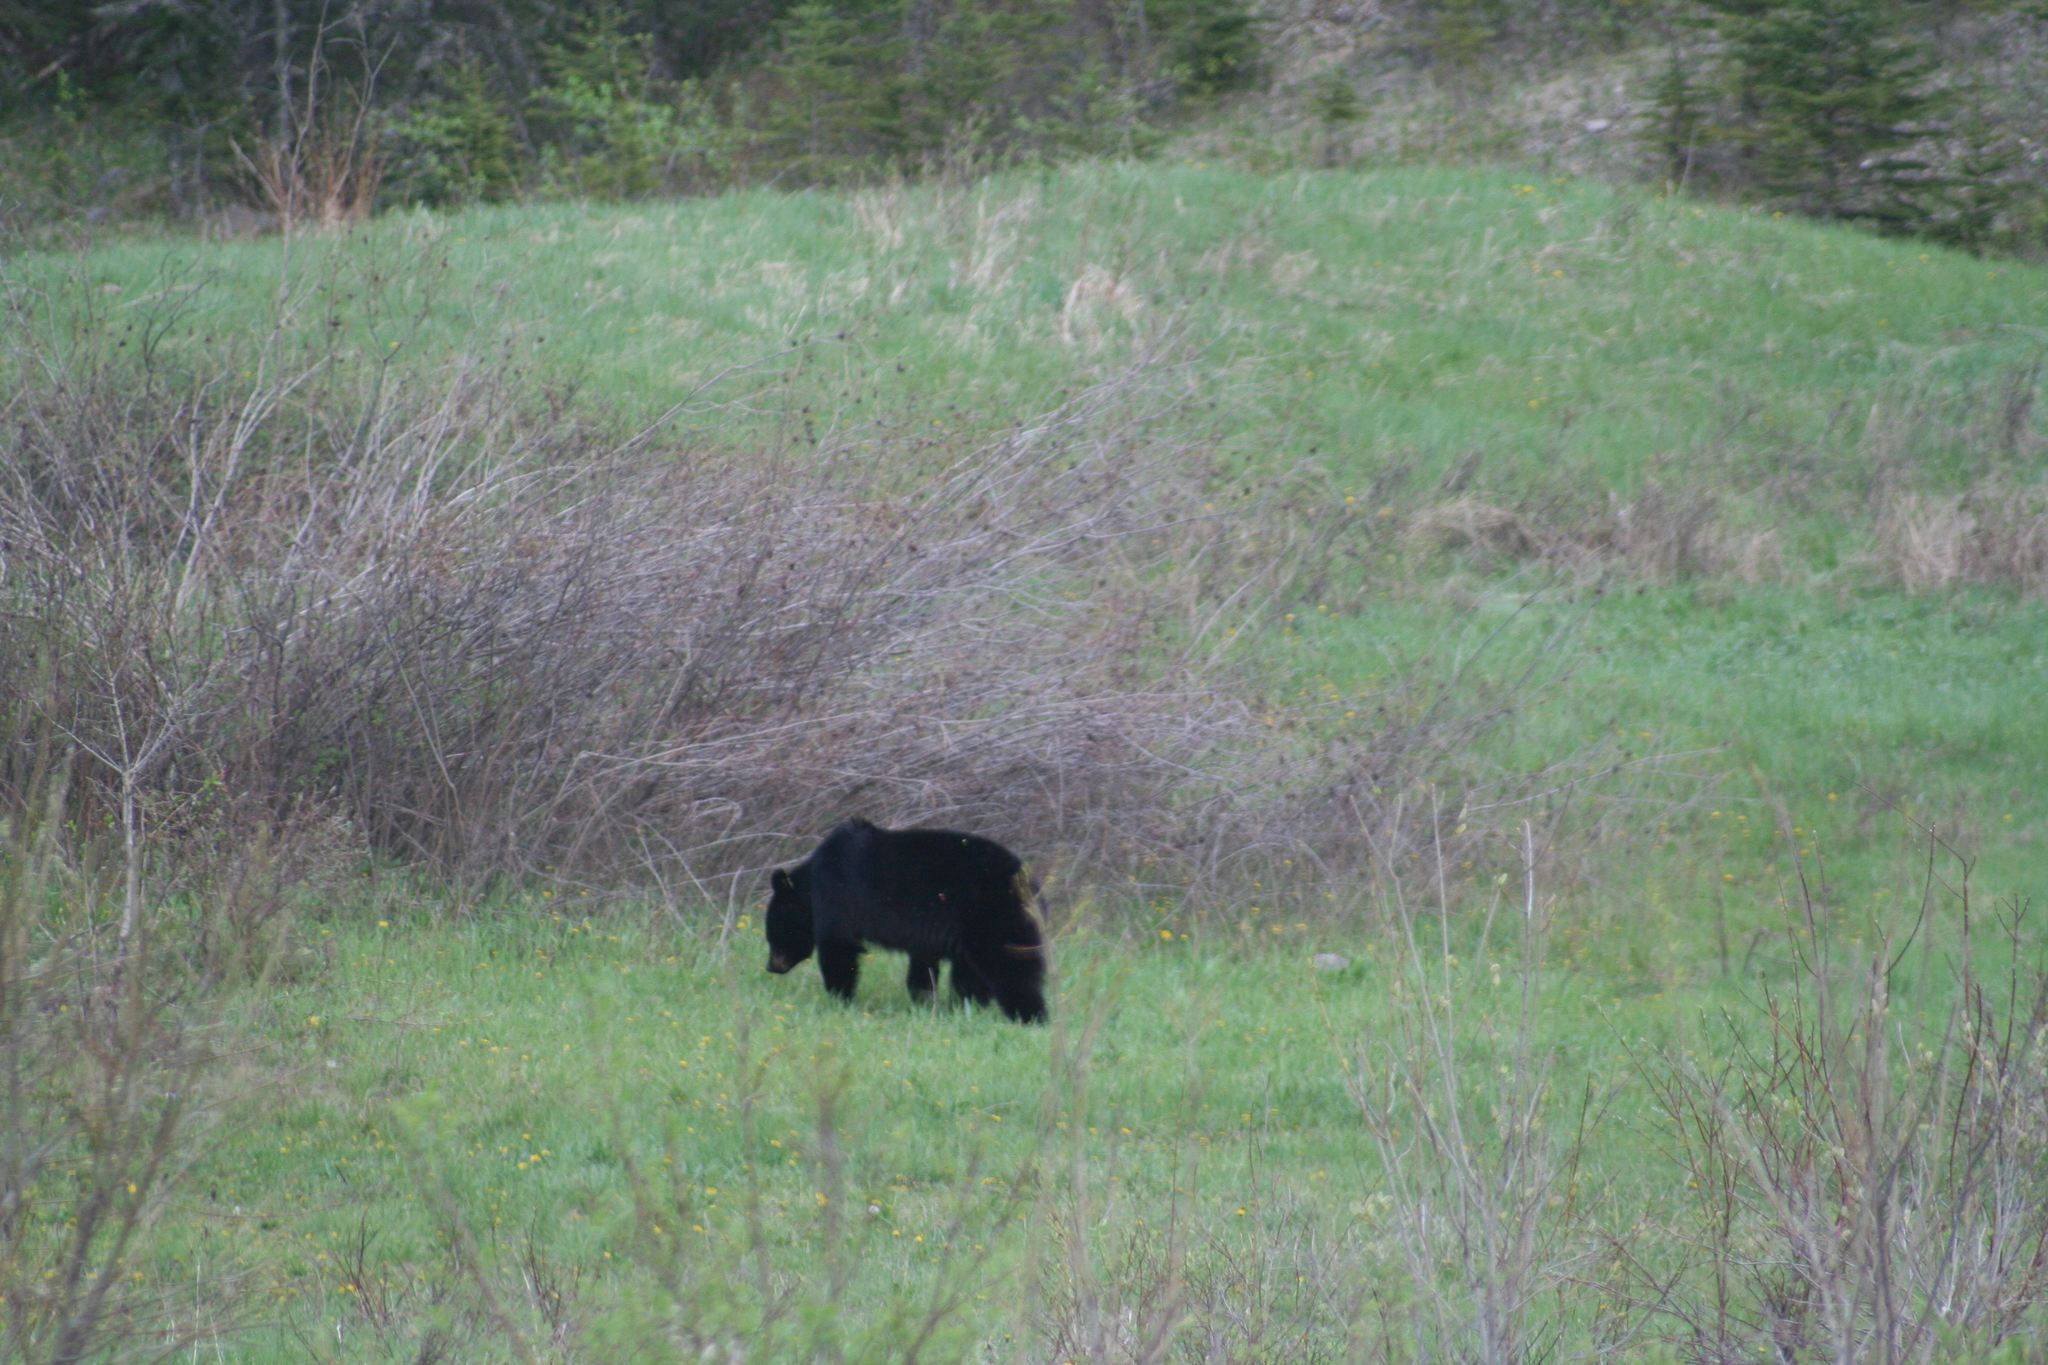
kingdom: Animalia
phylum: Chordata
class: Mammalia
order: Carnivora
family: Ursidae
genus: Ursus
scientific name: Ursus americanus
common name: American black bear
